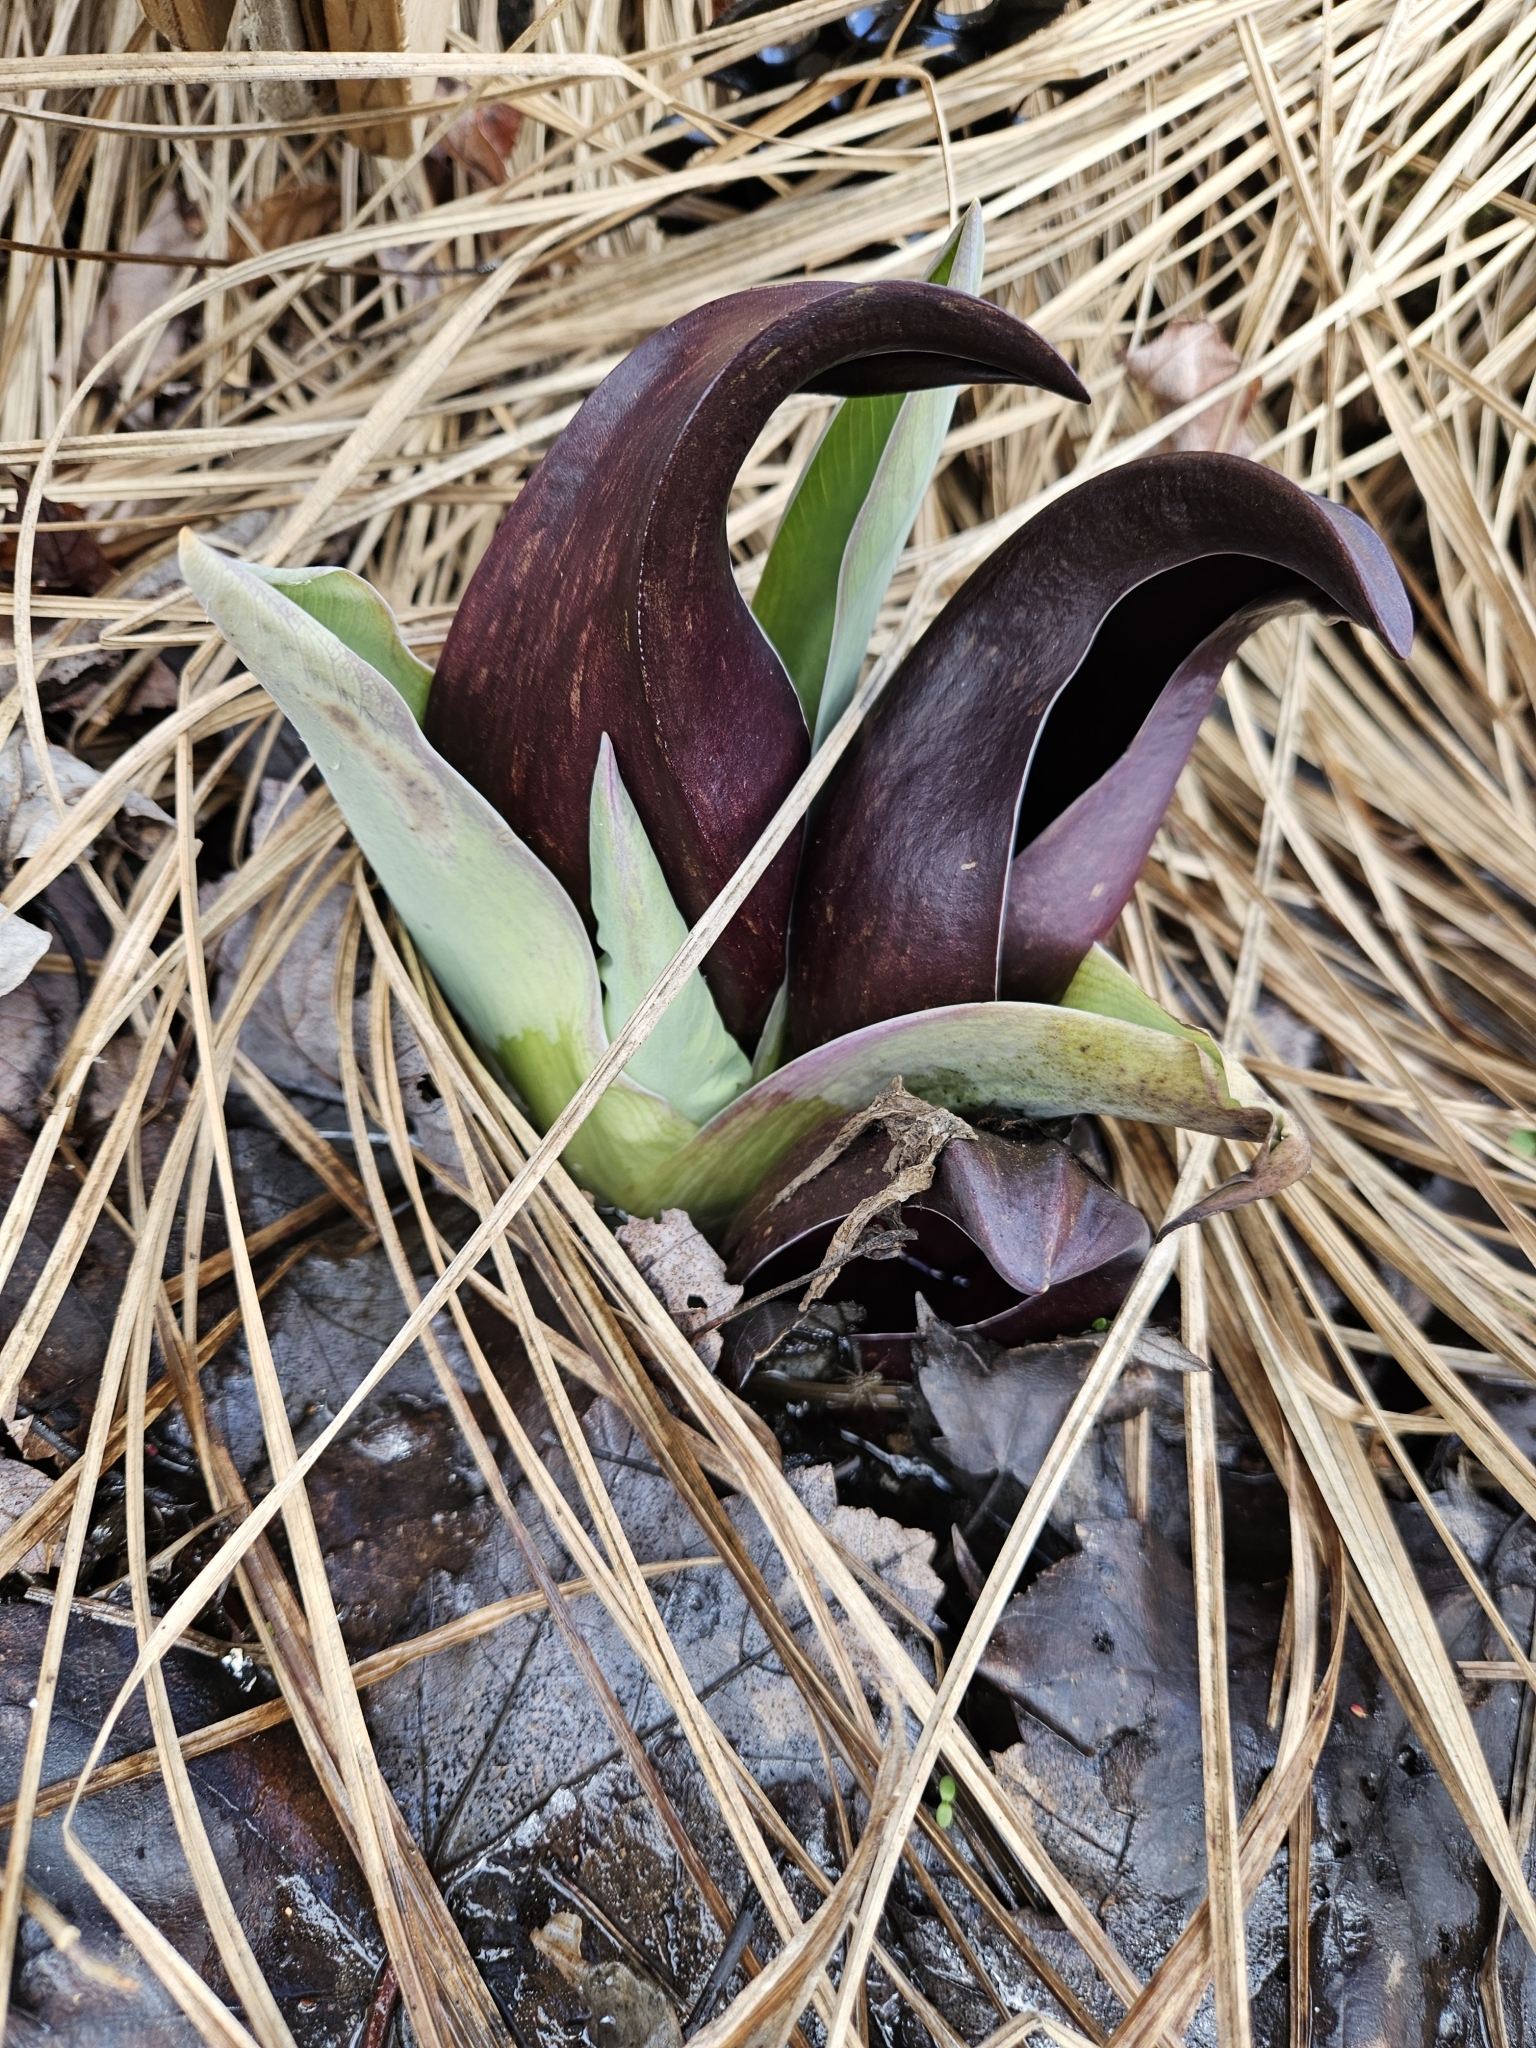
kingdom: Plantae
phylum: Tracheophyta
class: Liliopsida
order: Alismatales
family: Araceae
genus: Symplocarpus
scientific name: Symplocarpus foetidus
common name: Eastern skunk cabbage
